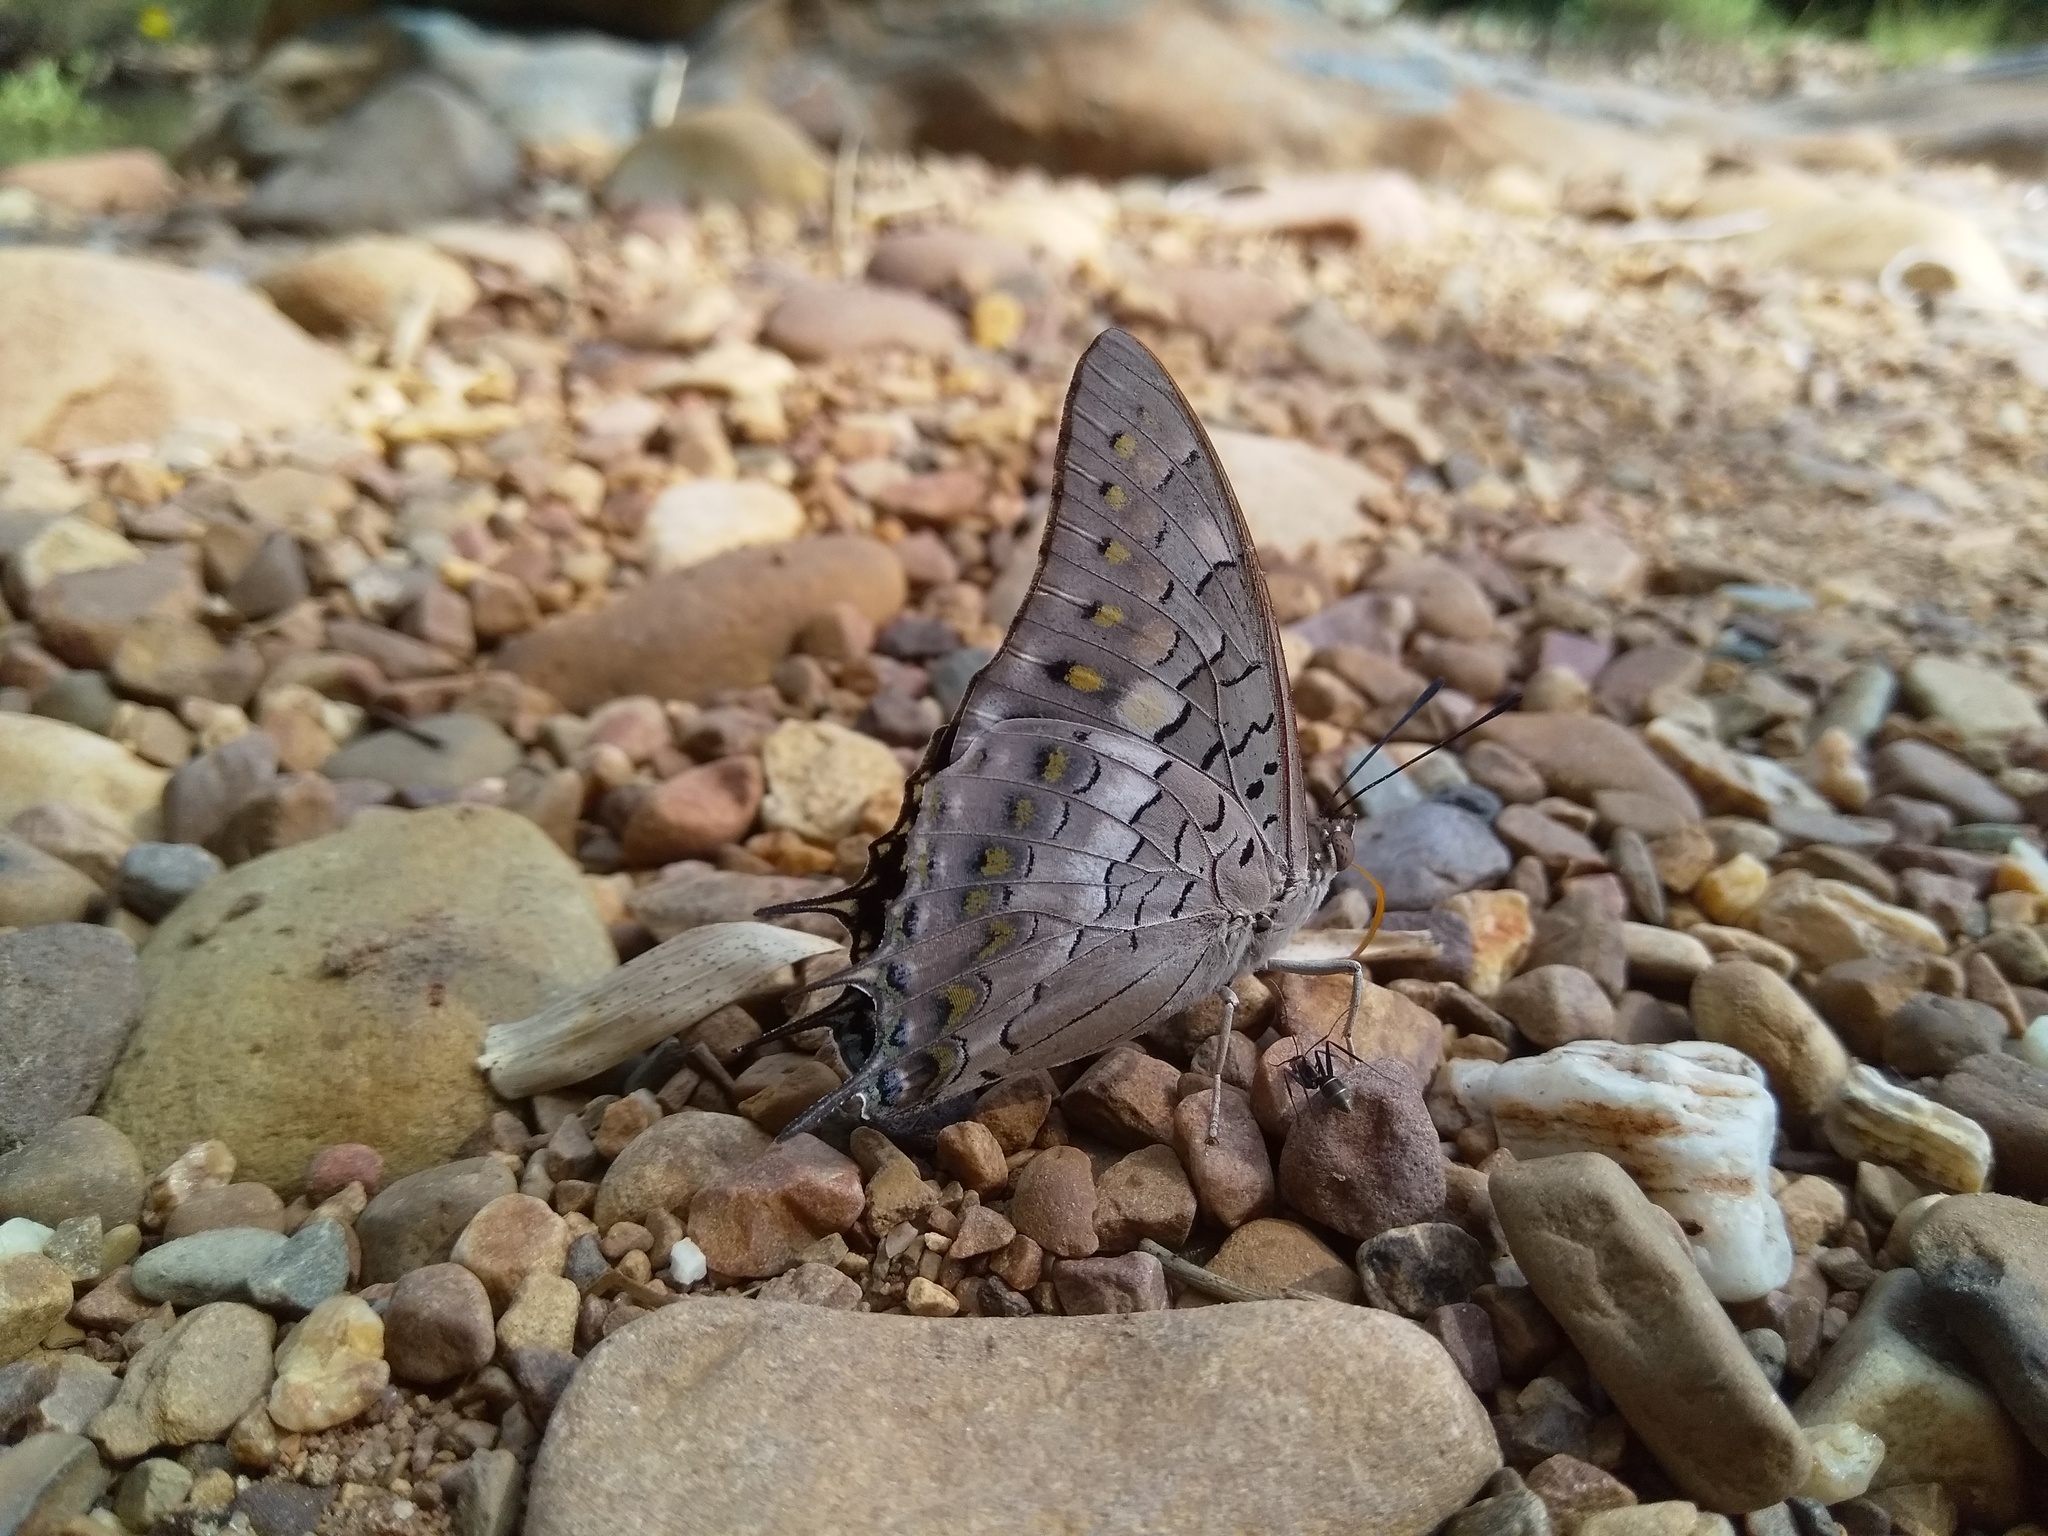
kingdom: Animalia
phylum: Arthropoda
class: Insecta
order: Lepidoptera
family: Nymphalidae
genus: Charaxes
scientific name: Charaxes solon
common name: Black rajah
